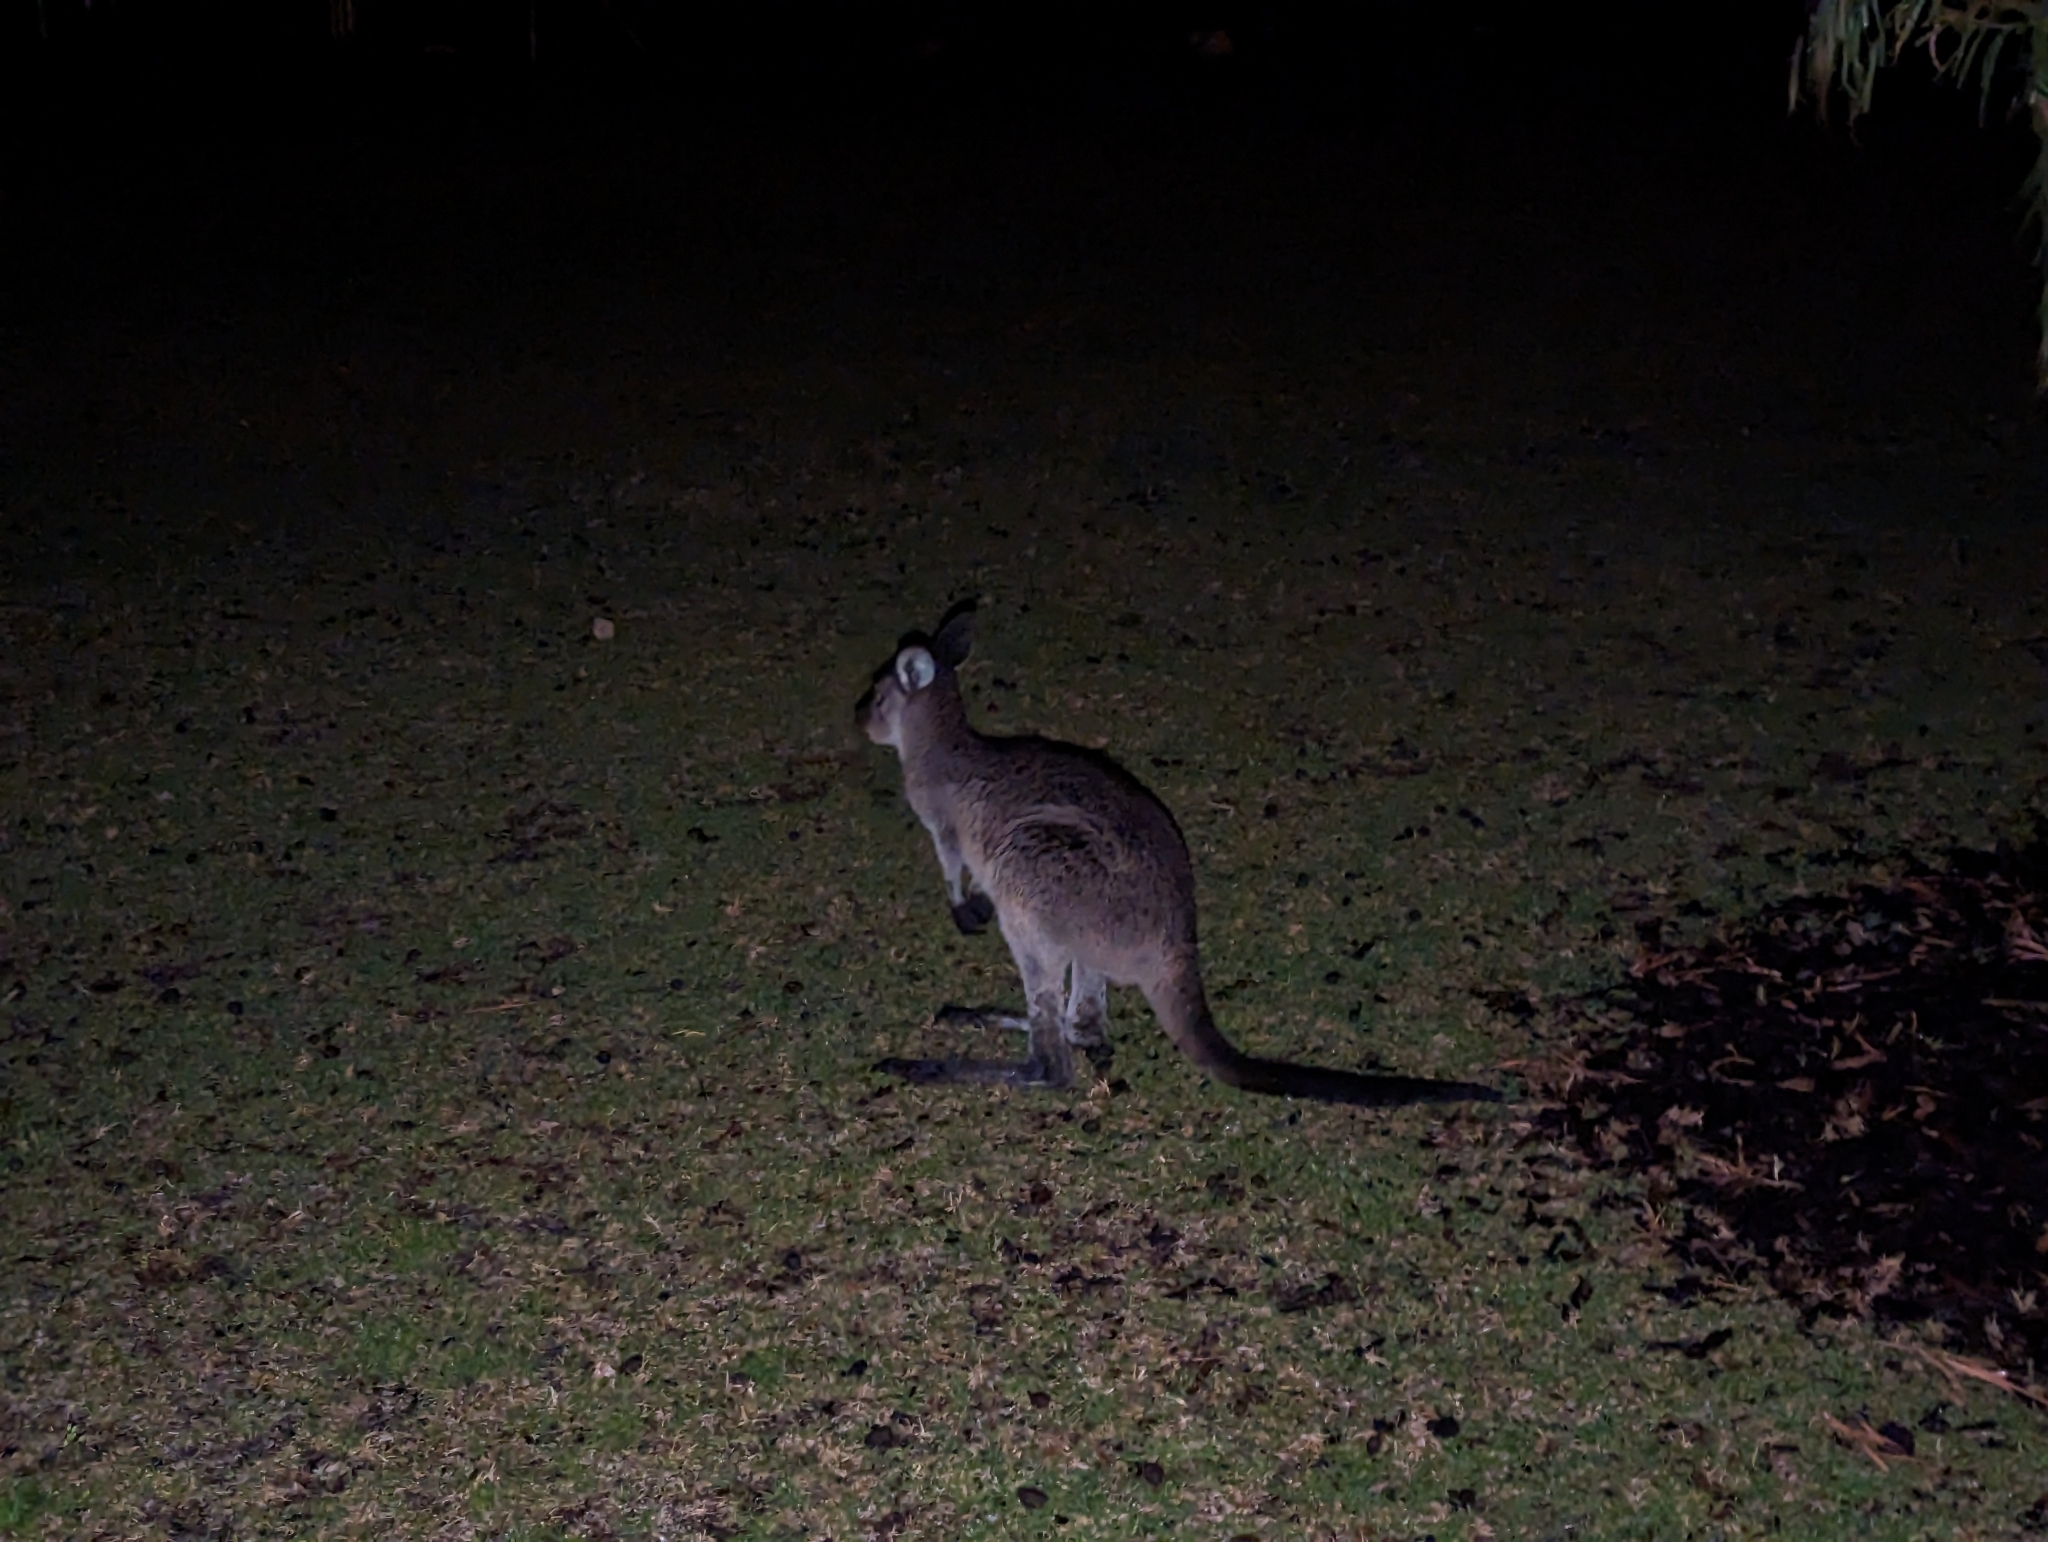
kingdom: Animalia
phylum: Chordata
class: Mammalia
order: Diprotodontia
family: Macropodidae
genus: Macropus
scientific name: Macropus fuliginosus
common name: Western grey kangaroo
